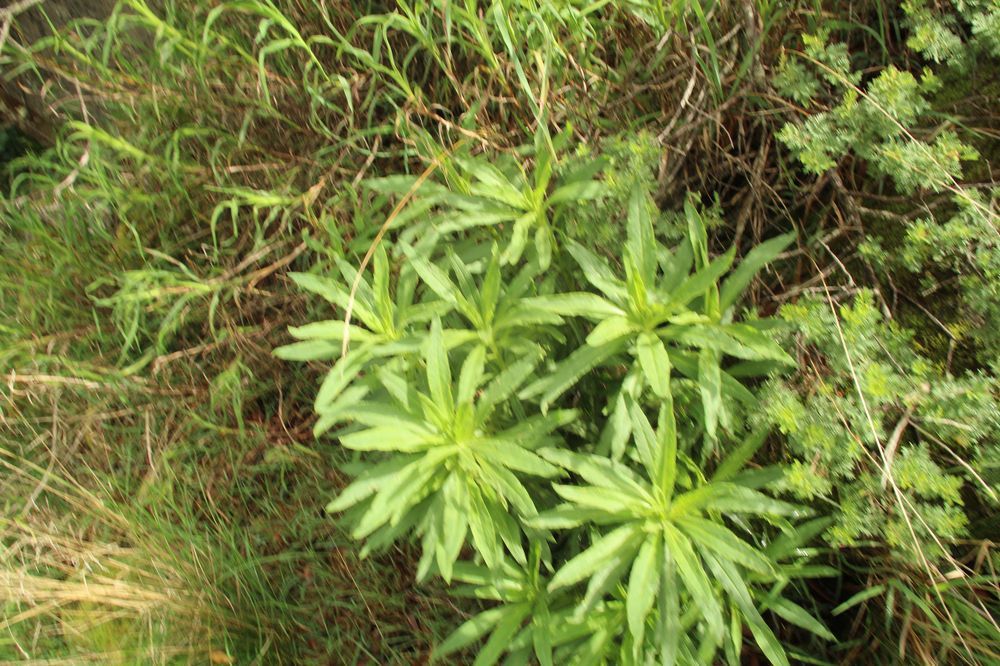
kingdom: Plantae
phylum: Tracheophyta
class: Magnoliopsida
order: Asterales
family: Asteraceae
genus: Xerochrysum
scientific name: Xerochrysum wilsonii
